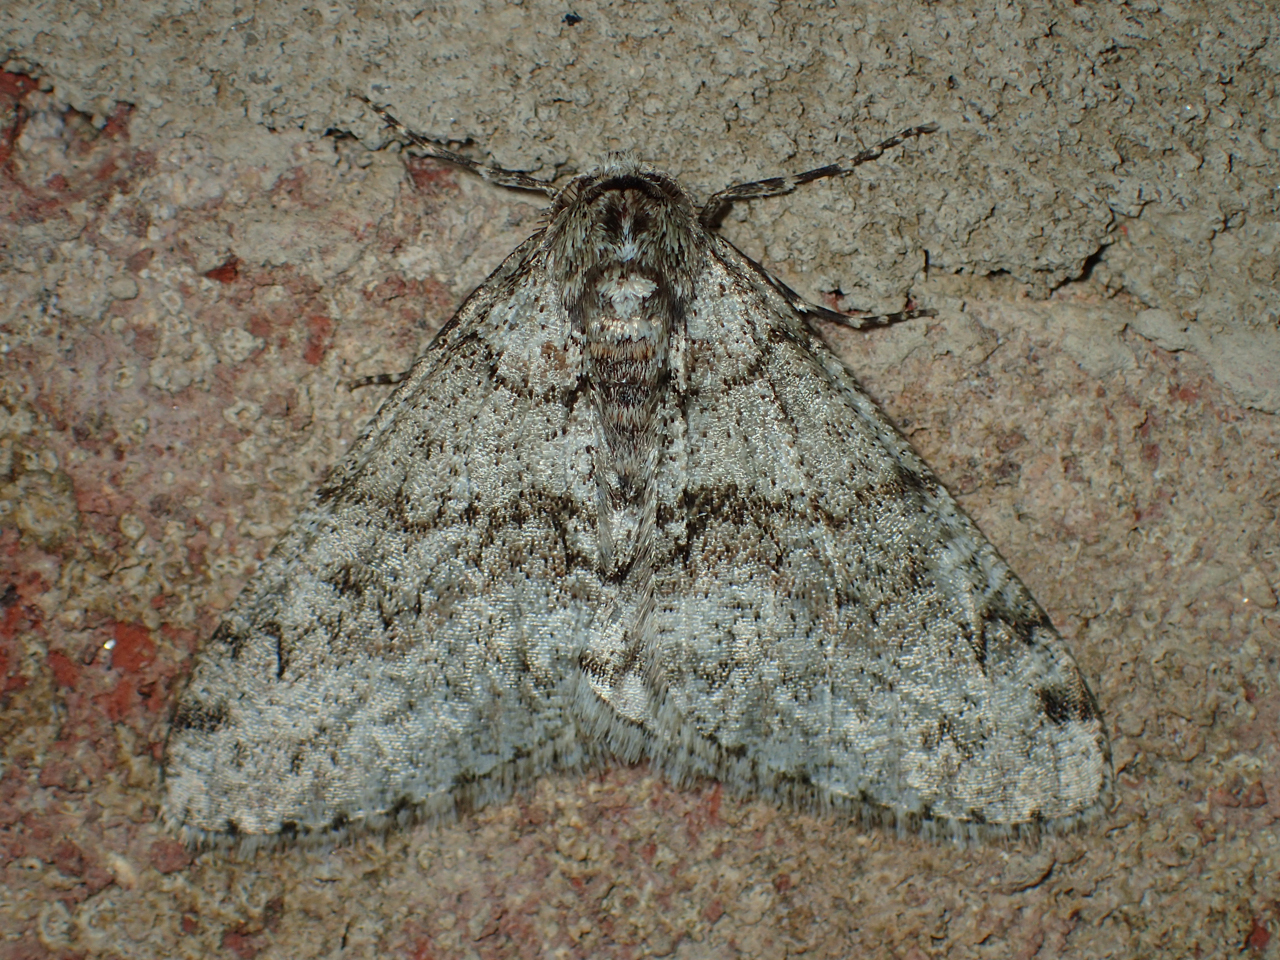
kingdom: Animalia
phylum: Arthropoda
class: Insecta
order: Lepidoptera
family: Geometridae
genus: Phigalia
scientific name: Phigalia denticulata
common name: Toothed phigalia
